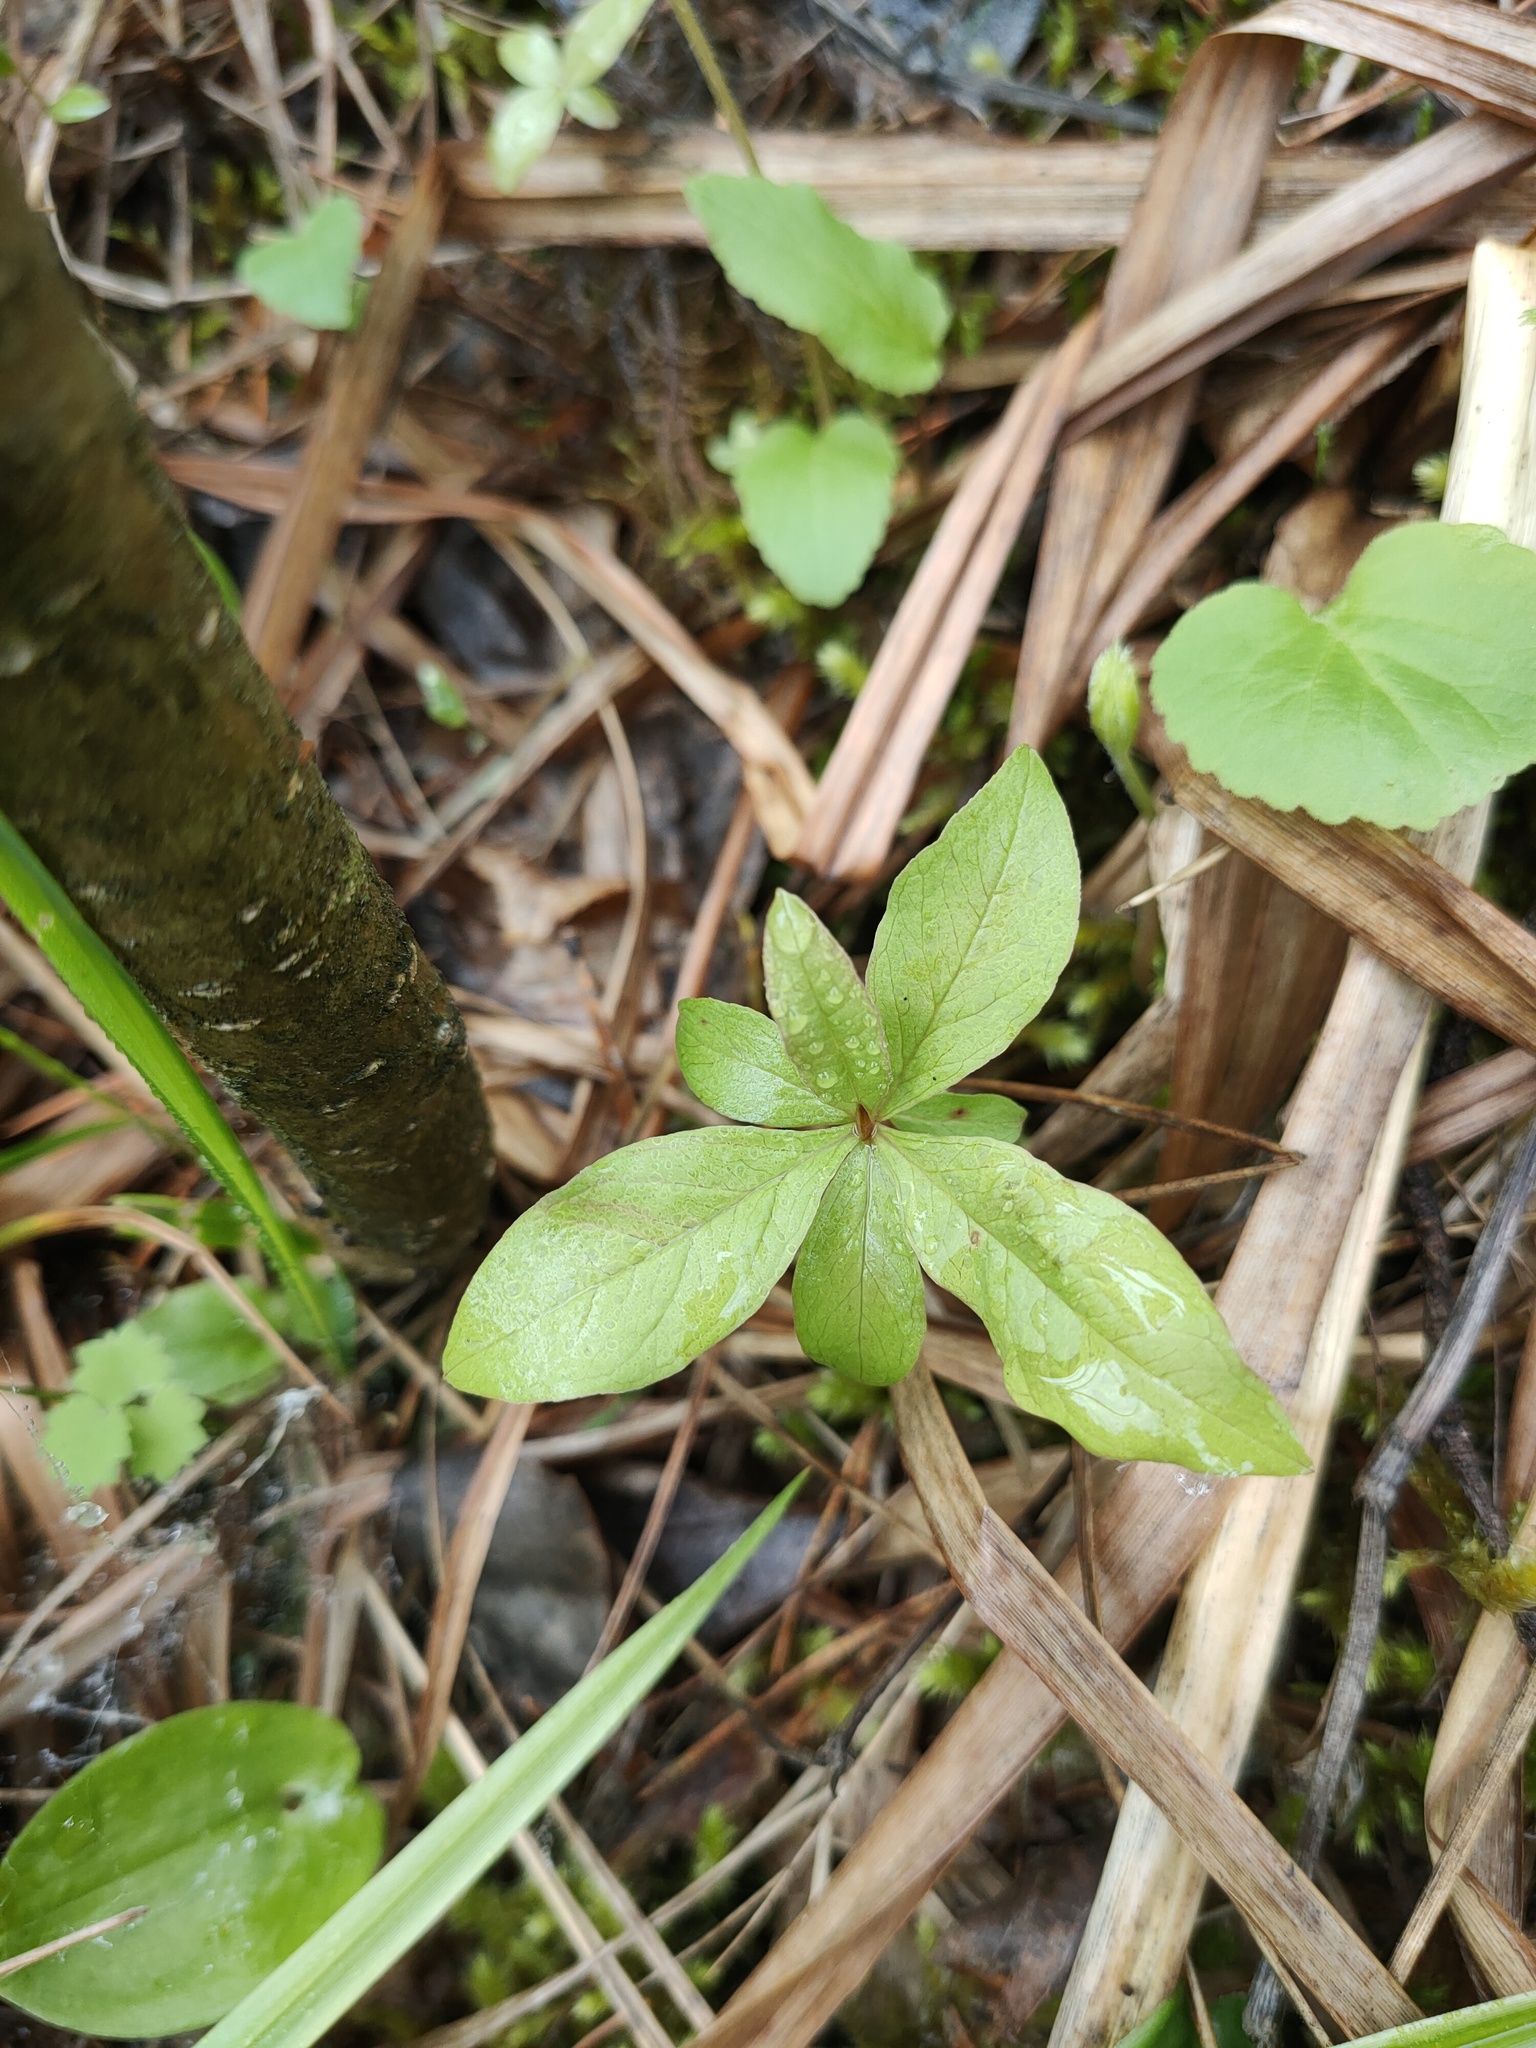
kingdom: Plantae
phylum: Tracheophyta
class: Magnoliopsida
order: Ericales
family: Primulaceae
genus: Lysimachia
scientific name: Lysimachia europaea
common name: Arctic starflower
